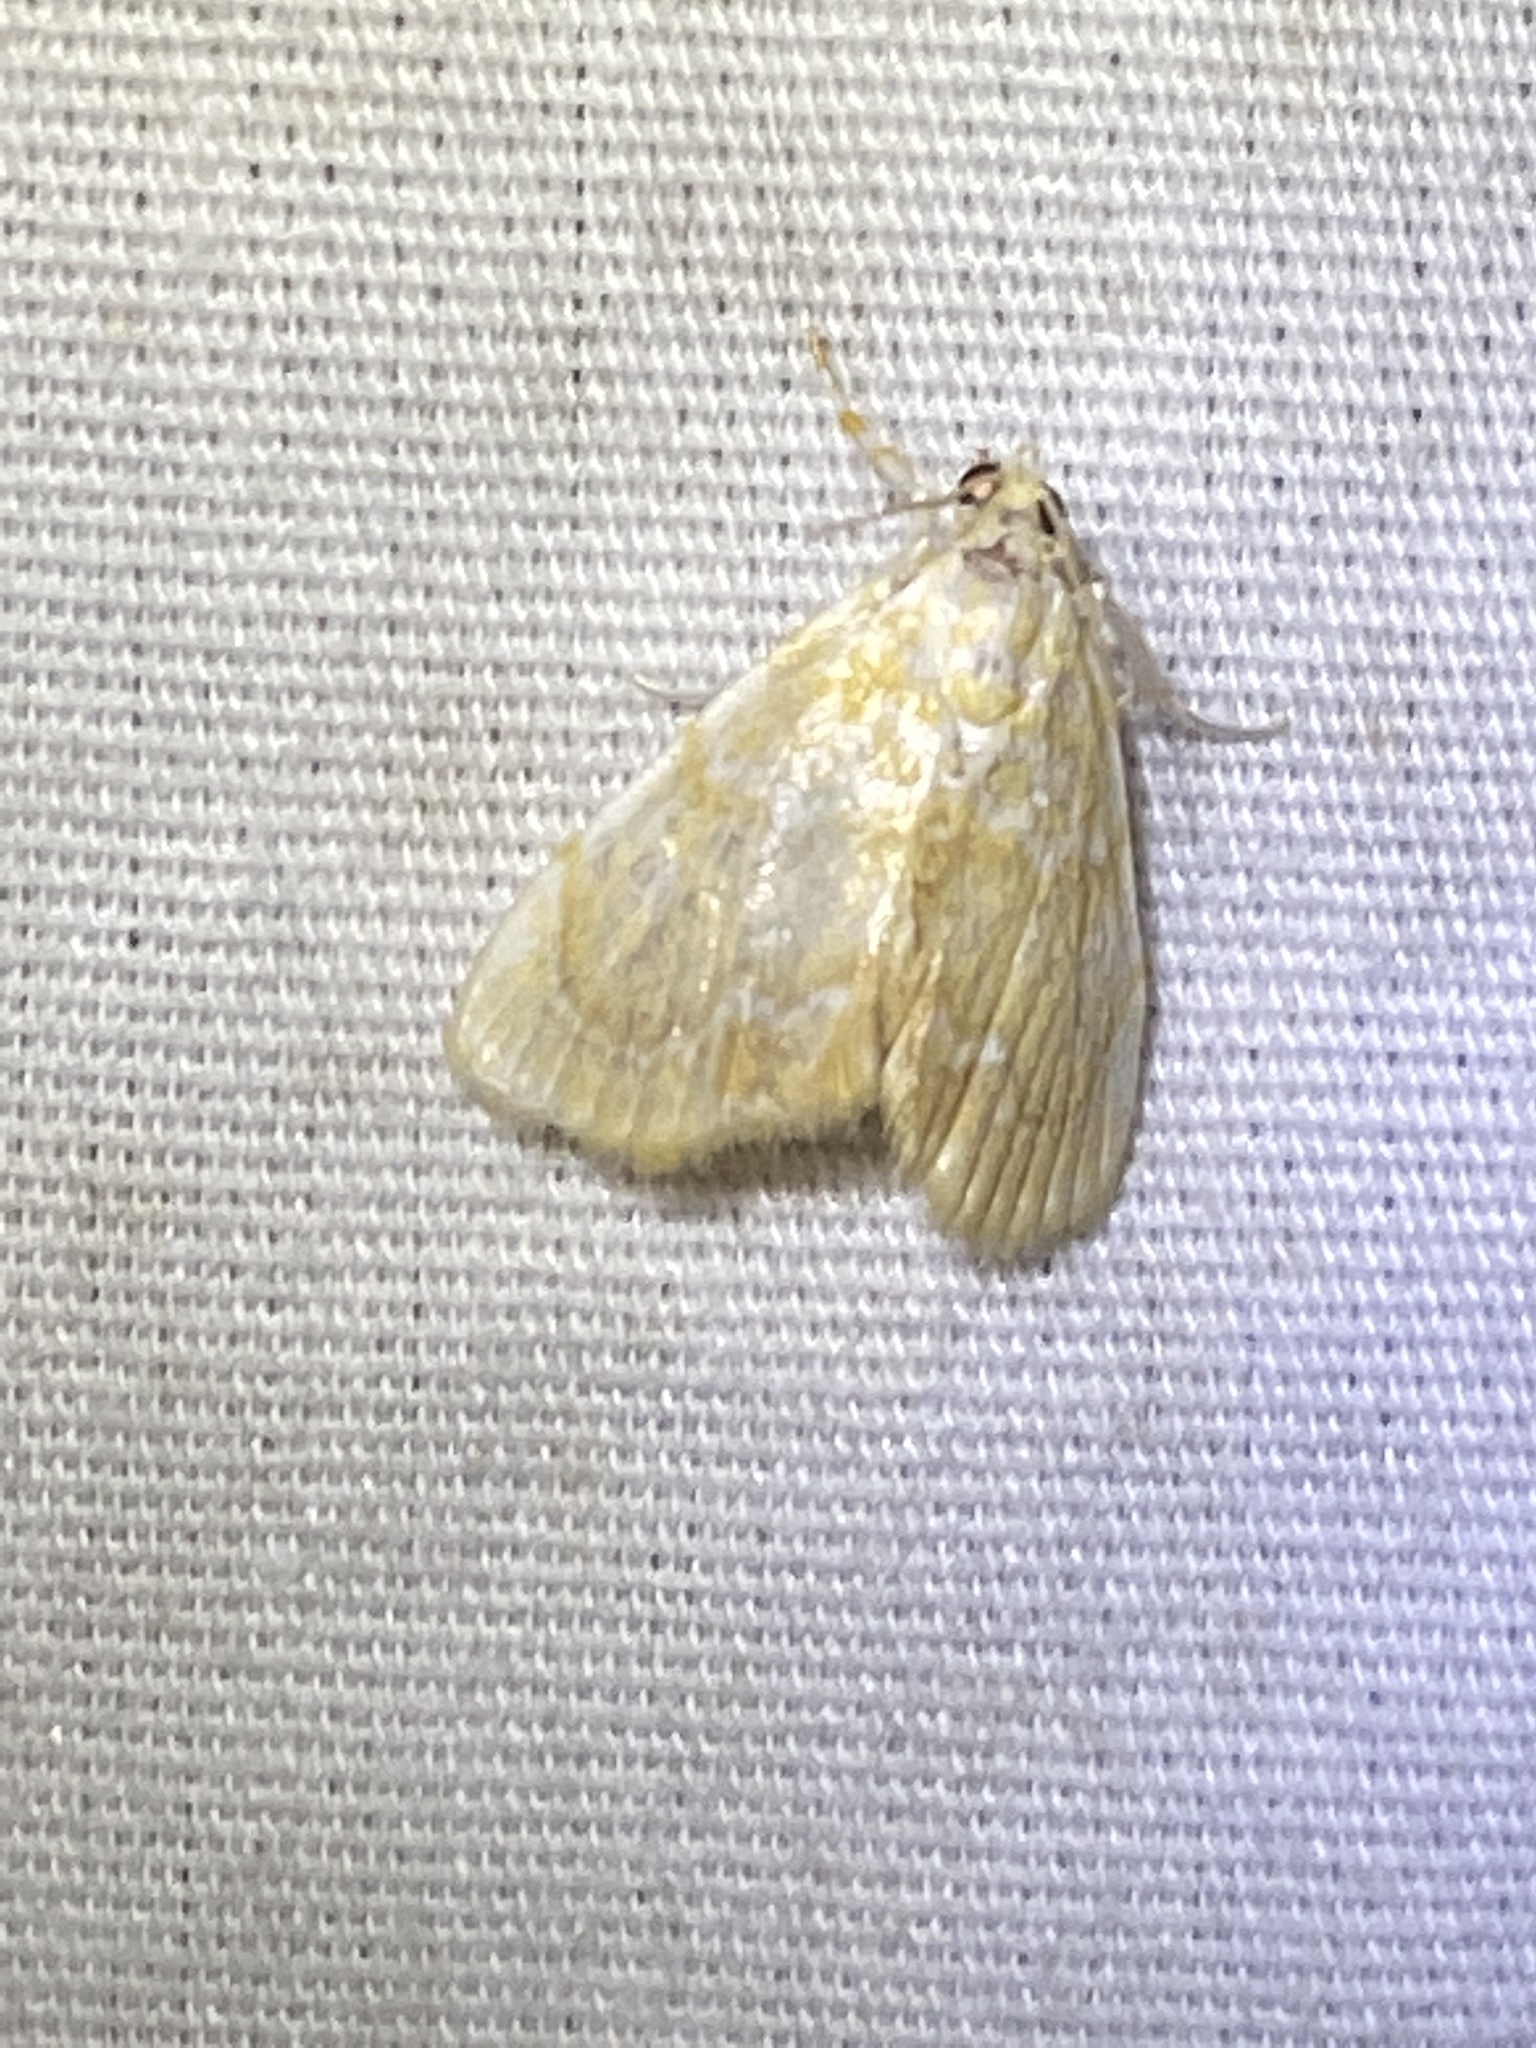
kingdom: Animalia
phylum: Arthropoda
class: Insecta
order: Lepidoptera
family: Crambidae
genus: Glaphyria
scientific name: Glaphyria glaphyralis
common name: Common glaphyria moth
